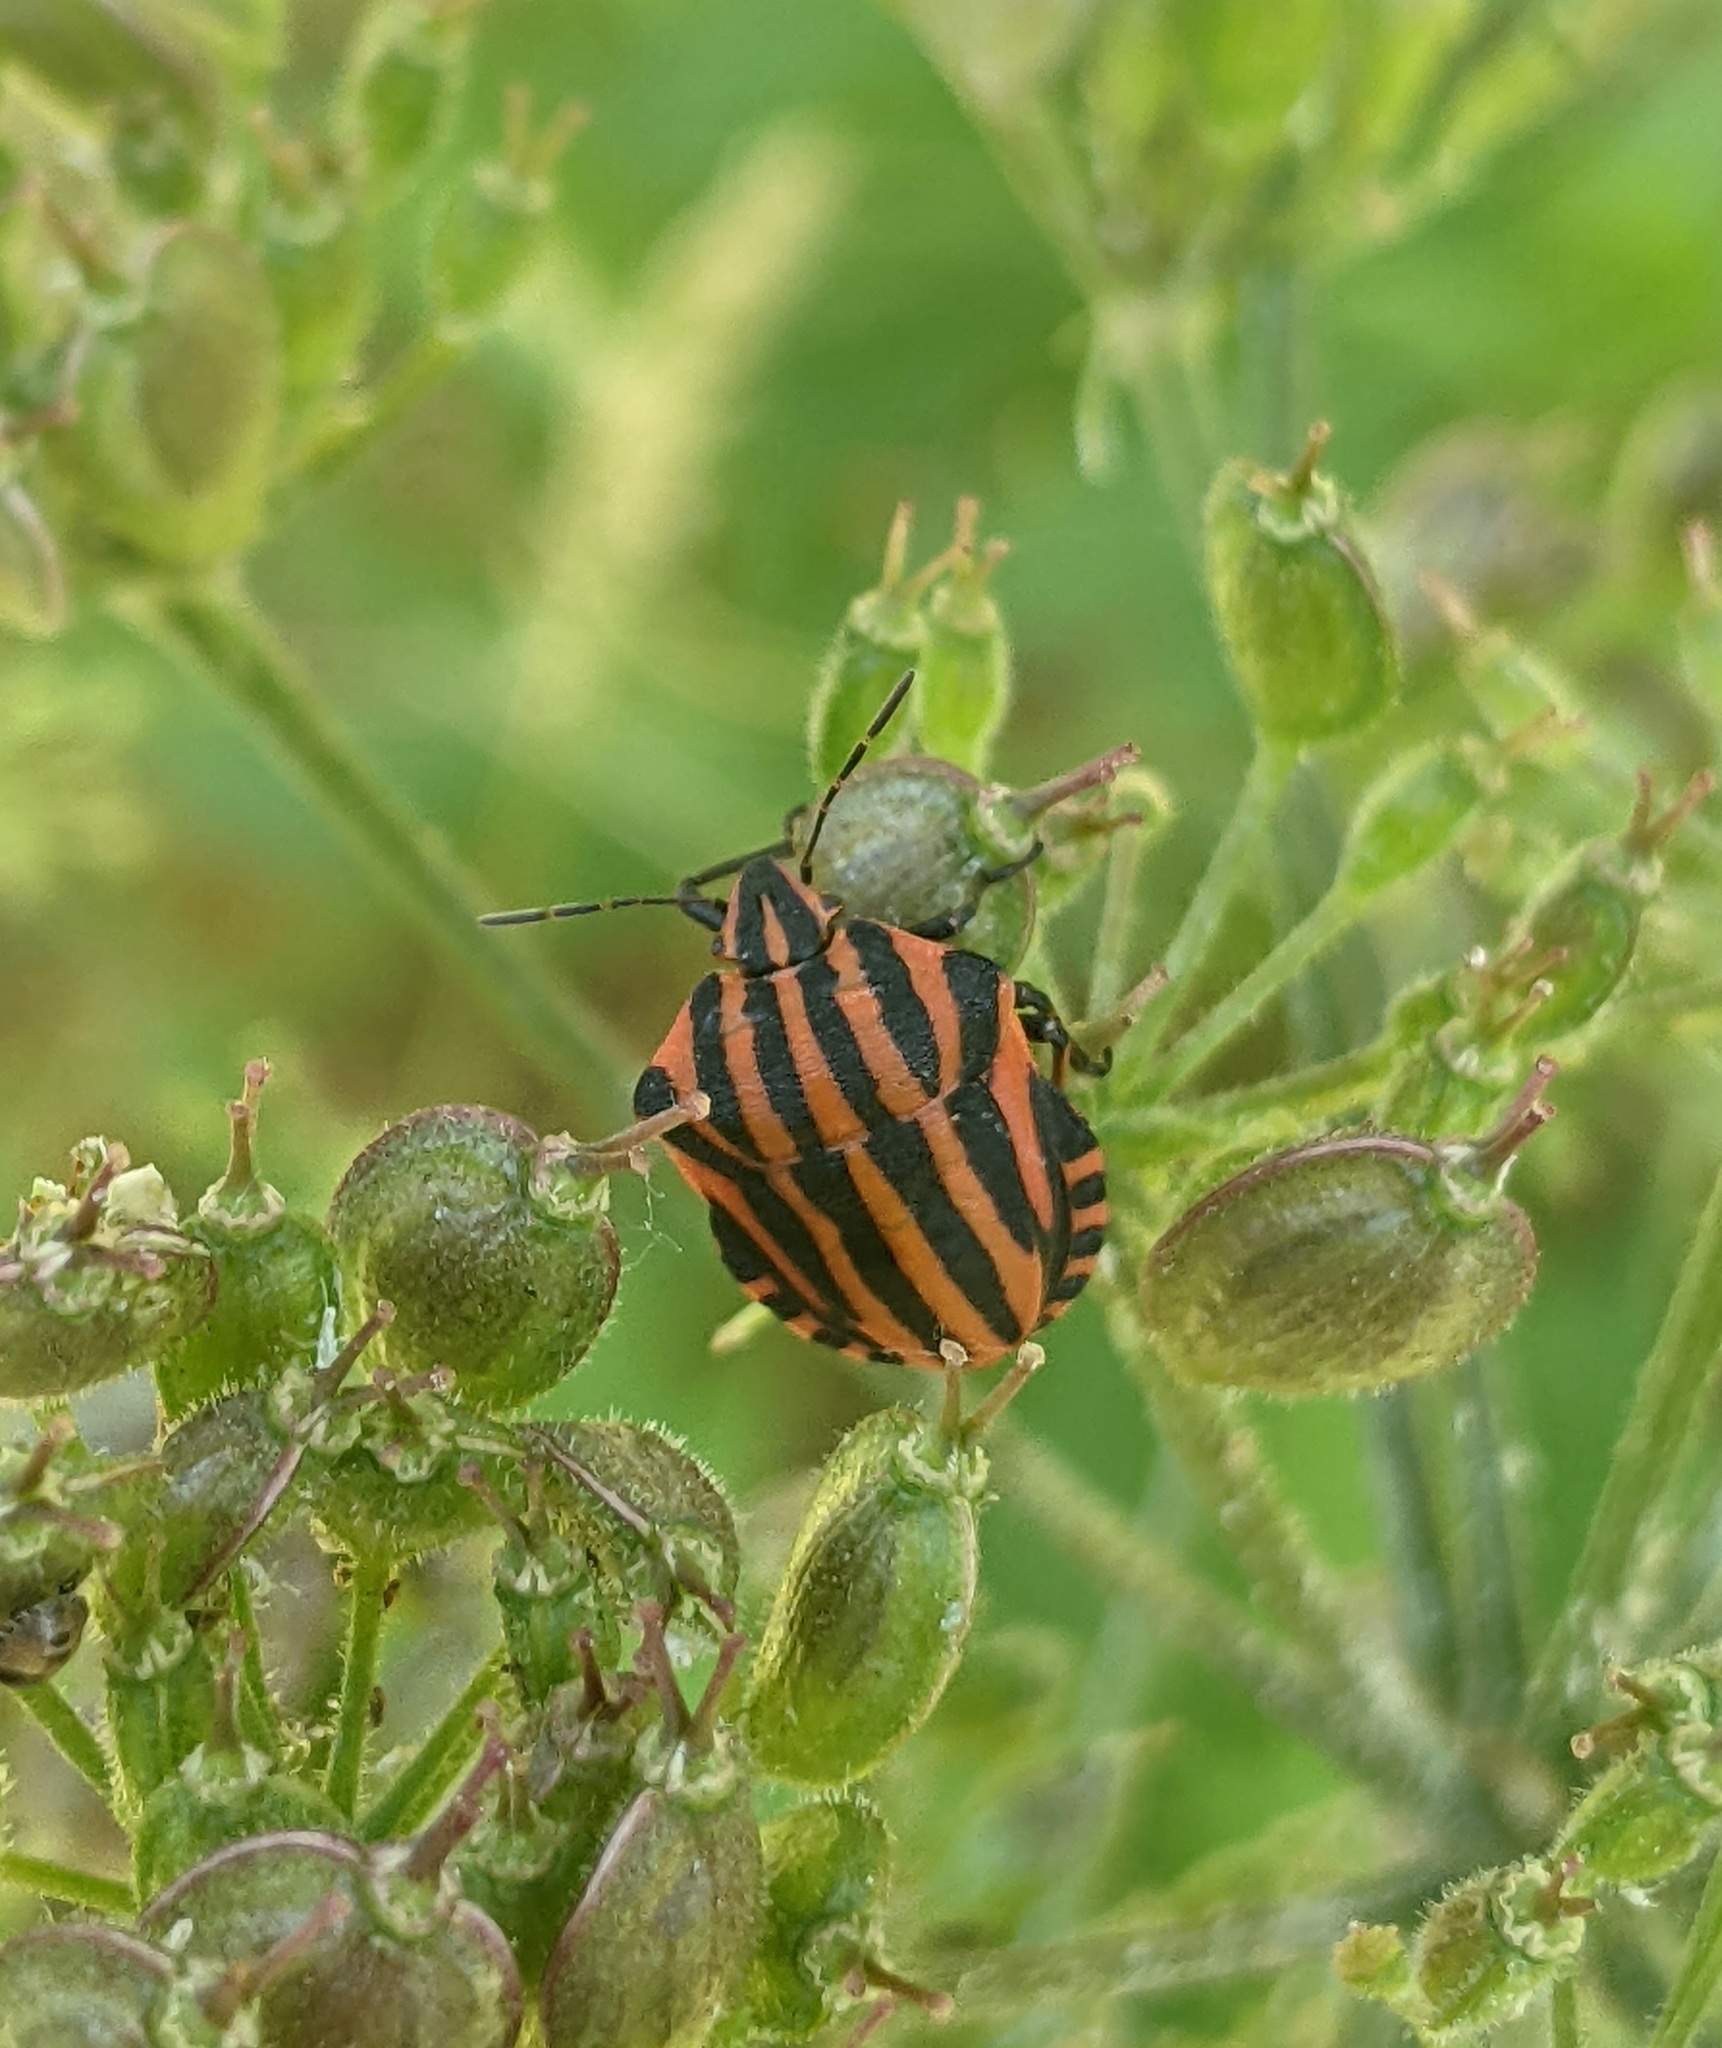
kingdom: Animalia
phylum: Arthropoda
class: Insecta
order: Hemiptera
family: Pentatomidae
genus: Graphosoma
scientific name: Graphosoma italicum
